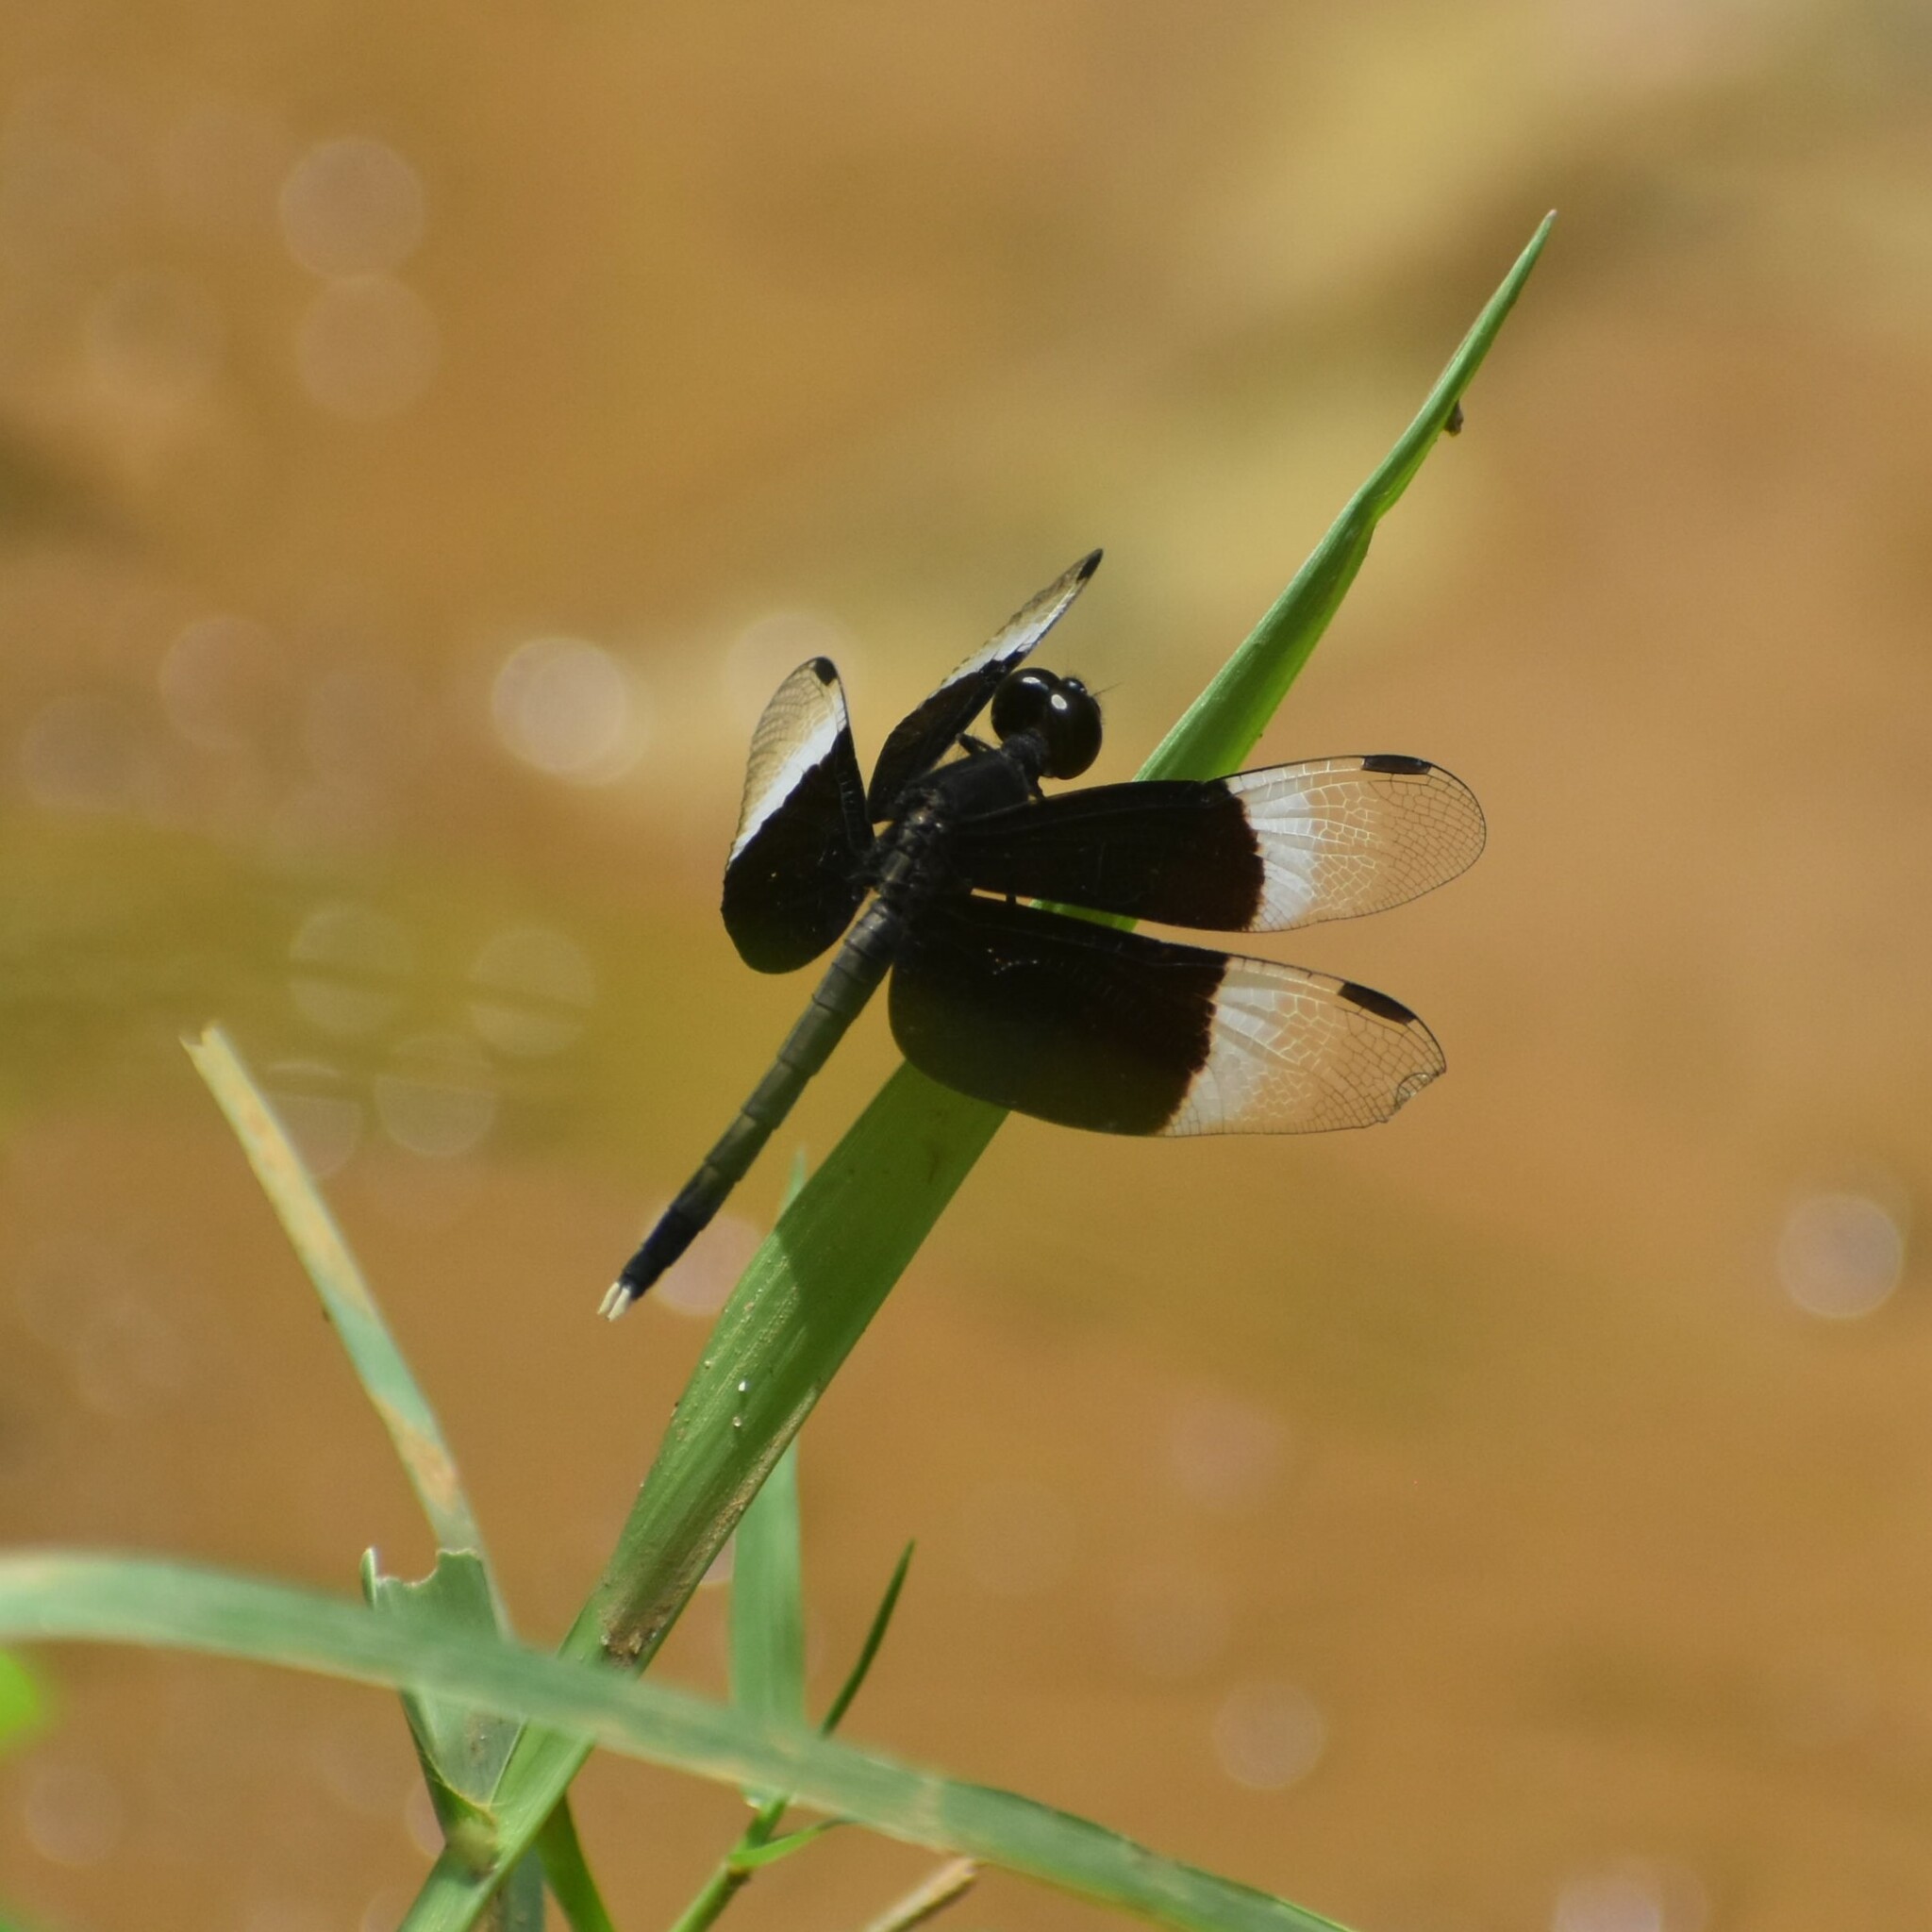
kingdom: Animalia
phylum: Arthropoda
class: Insecta
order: Odonata
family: Libellulidae
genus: Neurothemis
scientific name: Neurothemis tullia
